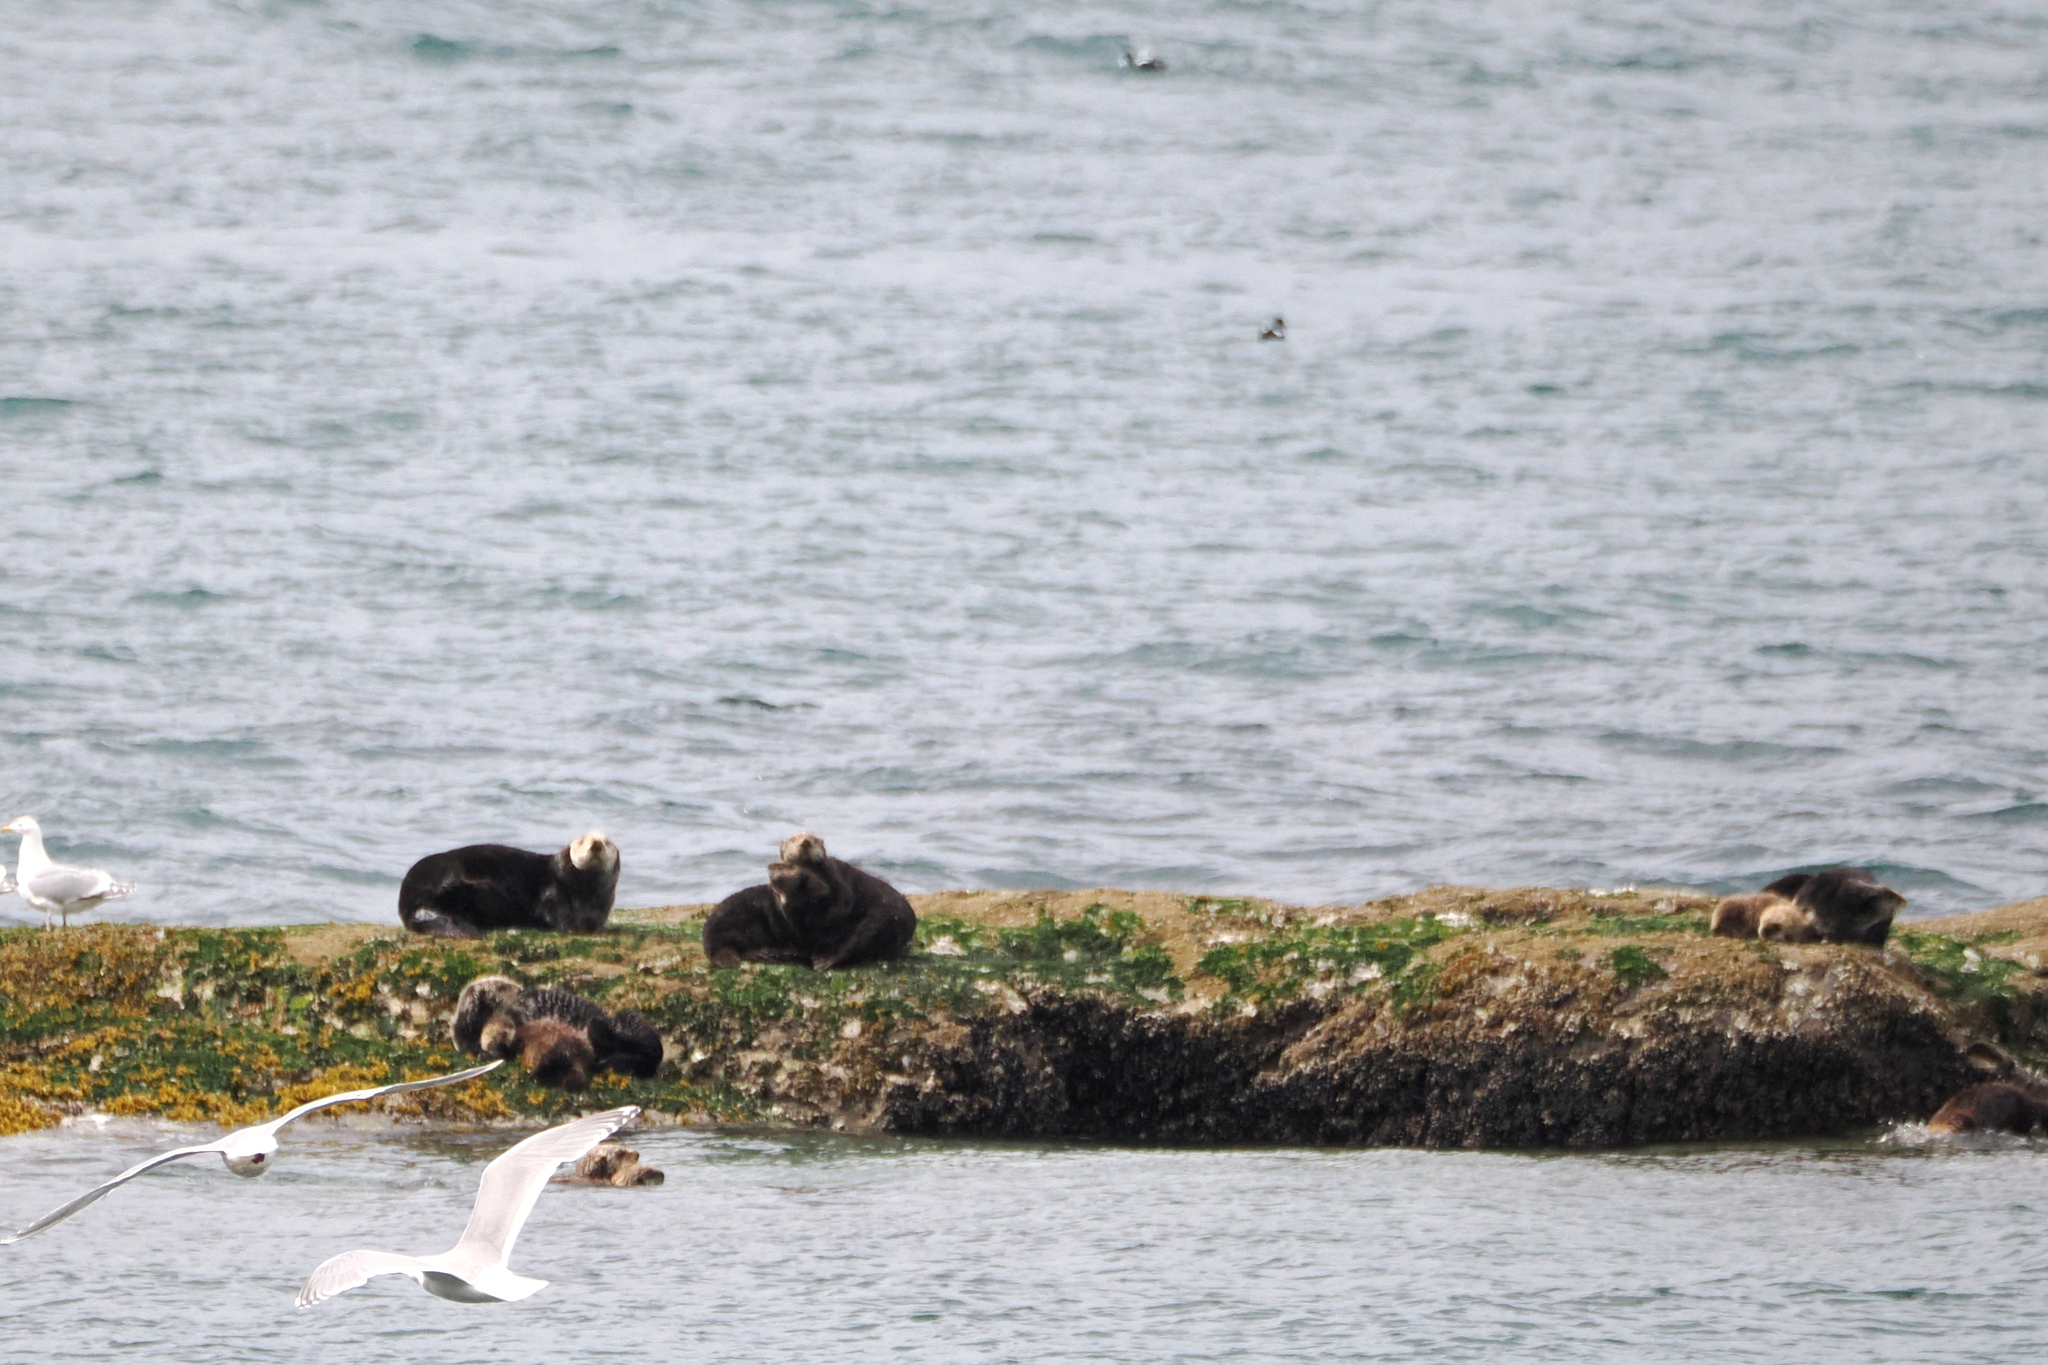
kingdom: Animalia
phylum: Chordata
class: Mammalia
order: Carnivora
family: Mustelidae
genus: Enhydra
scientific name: Enhydra lutris
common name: Sea otter
